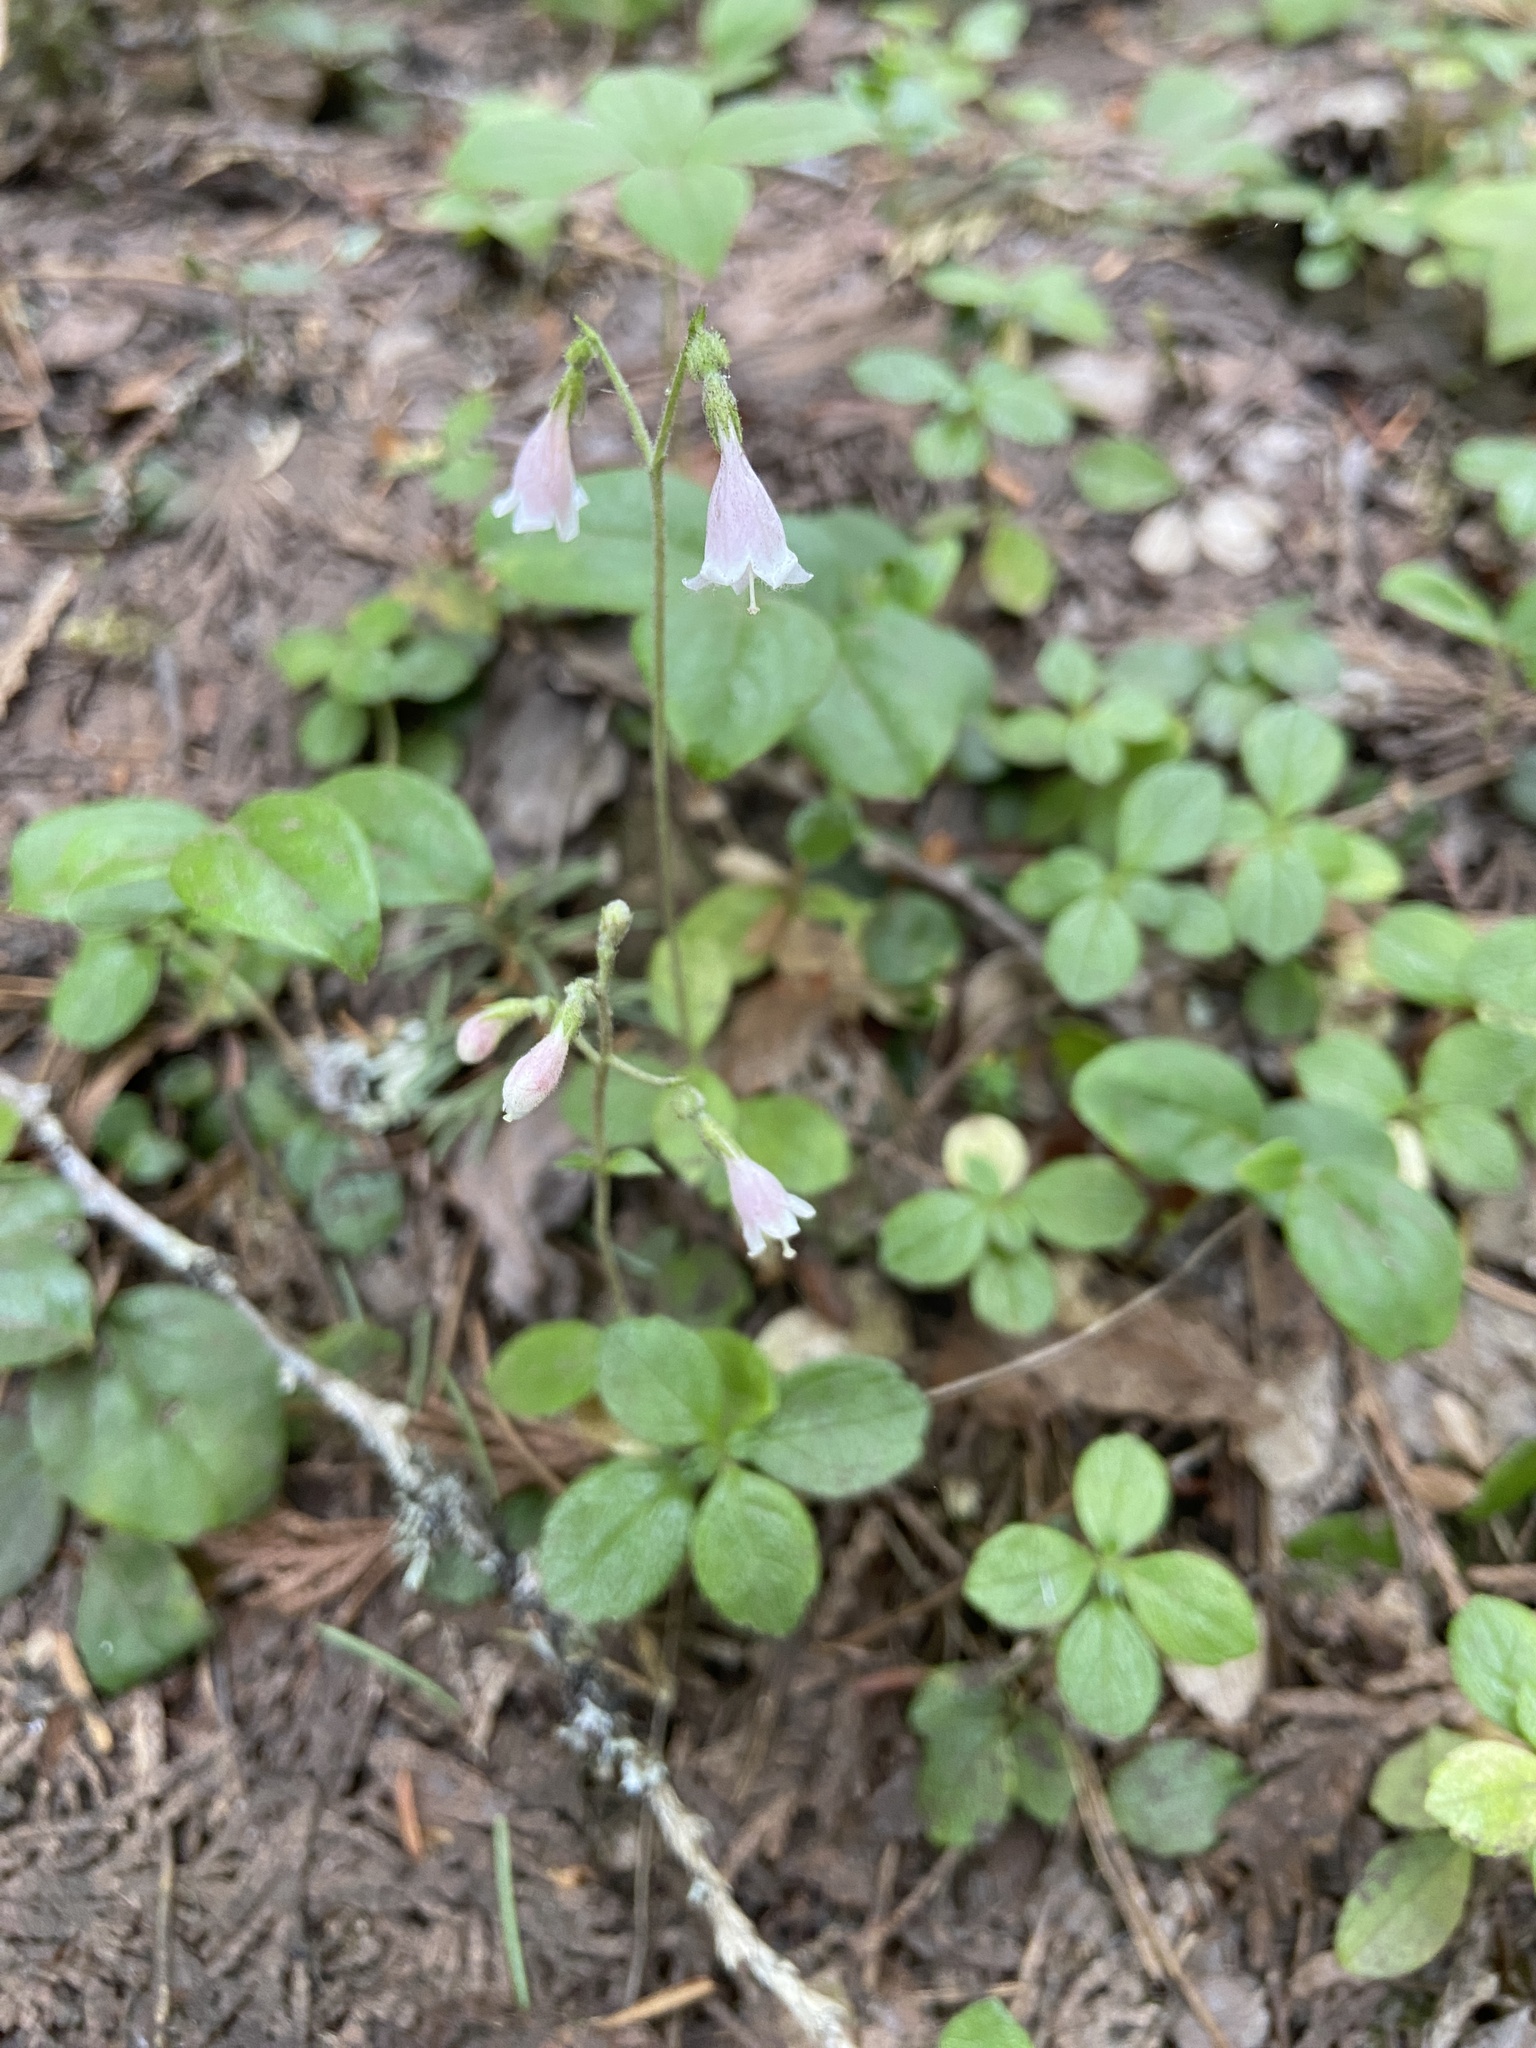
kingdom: Plantae
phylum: Tracheophyta
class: Magnoliopsida
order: Dipsacales
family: Caprifoliaceae
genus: Linnaea
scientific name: Linnaea borealis
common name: Twinflower
